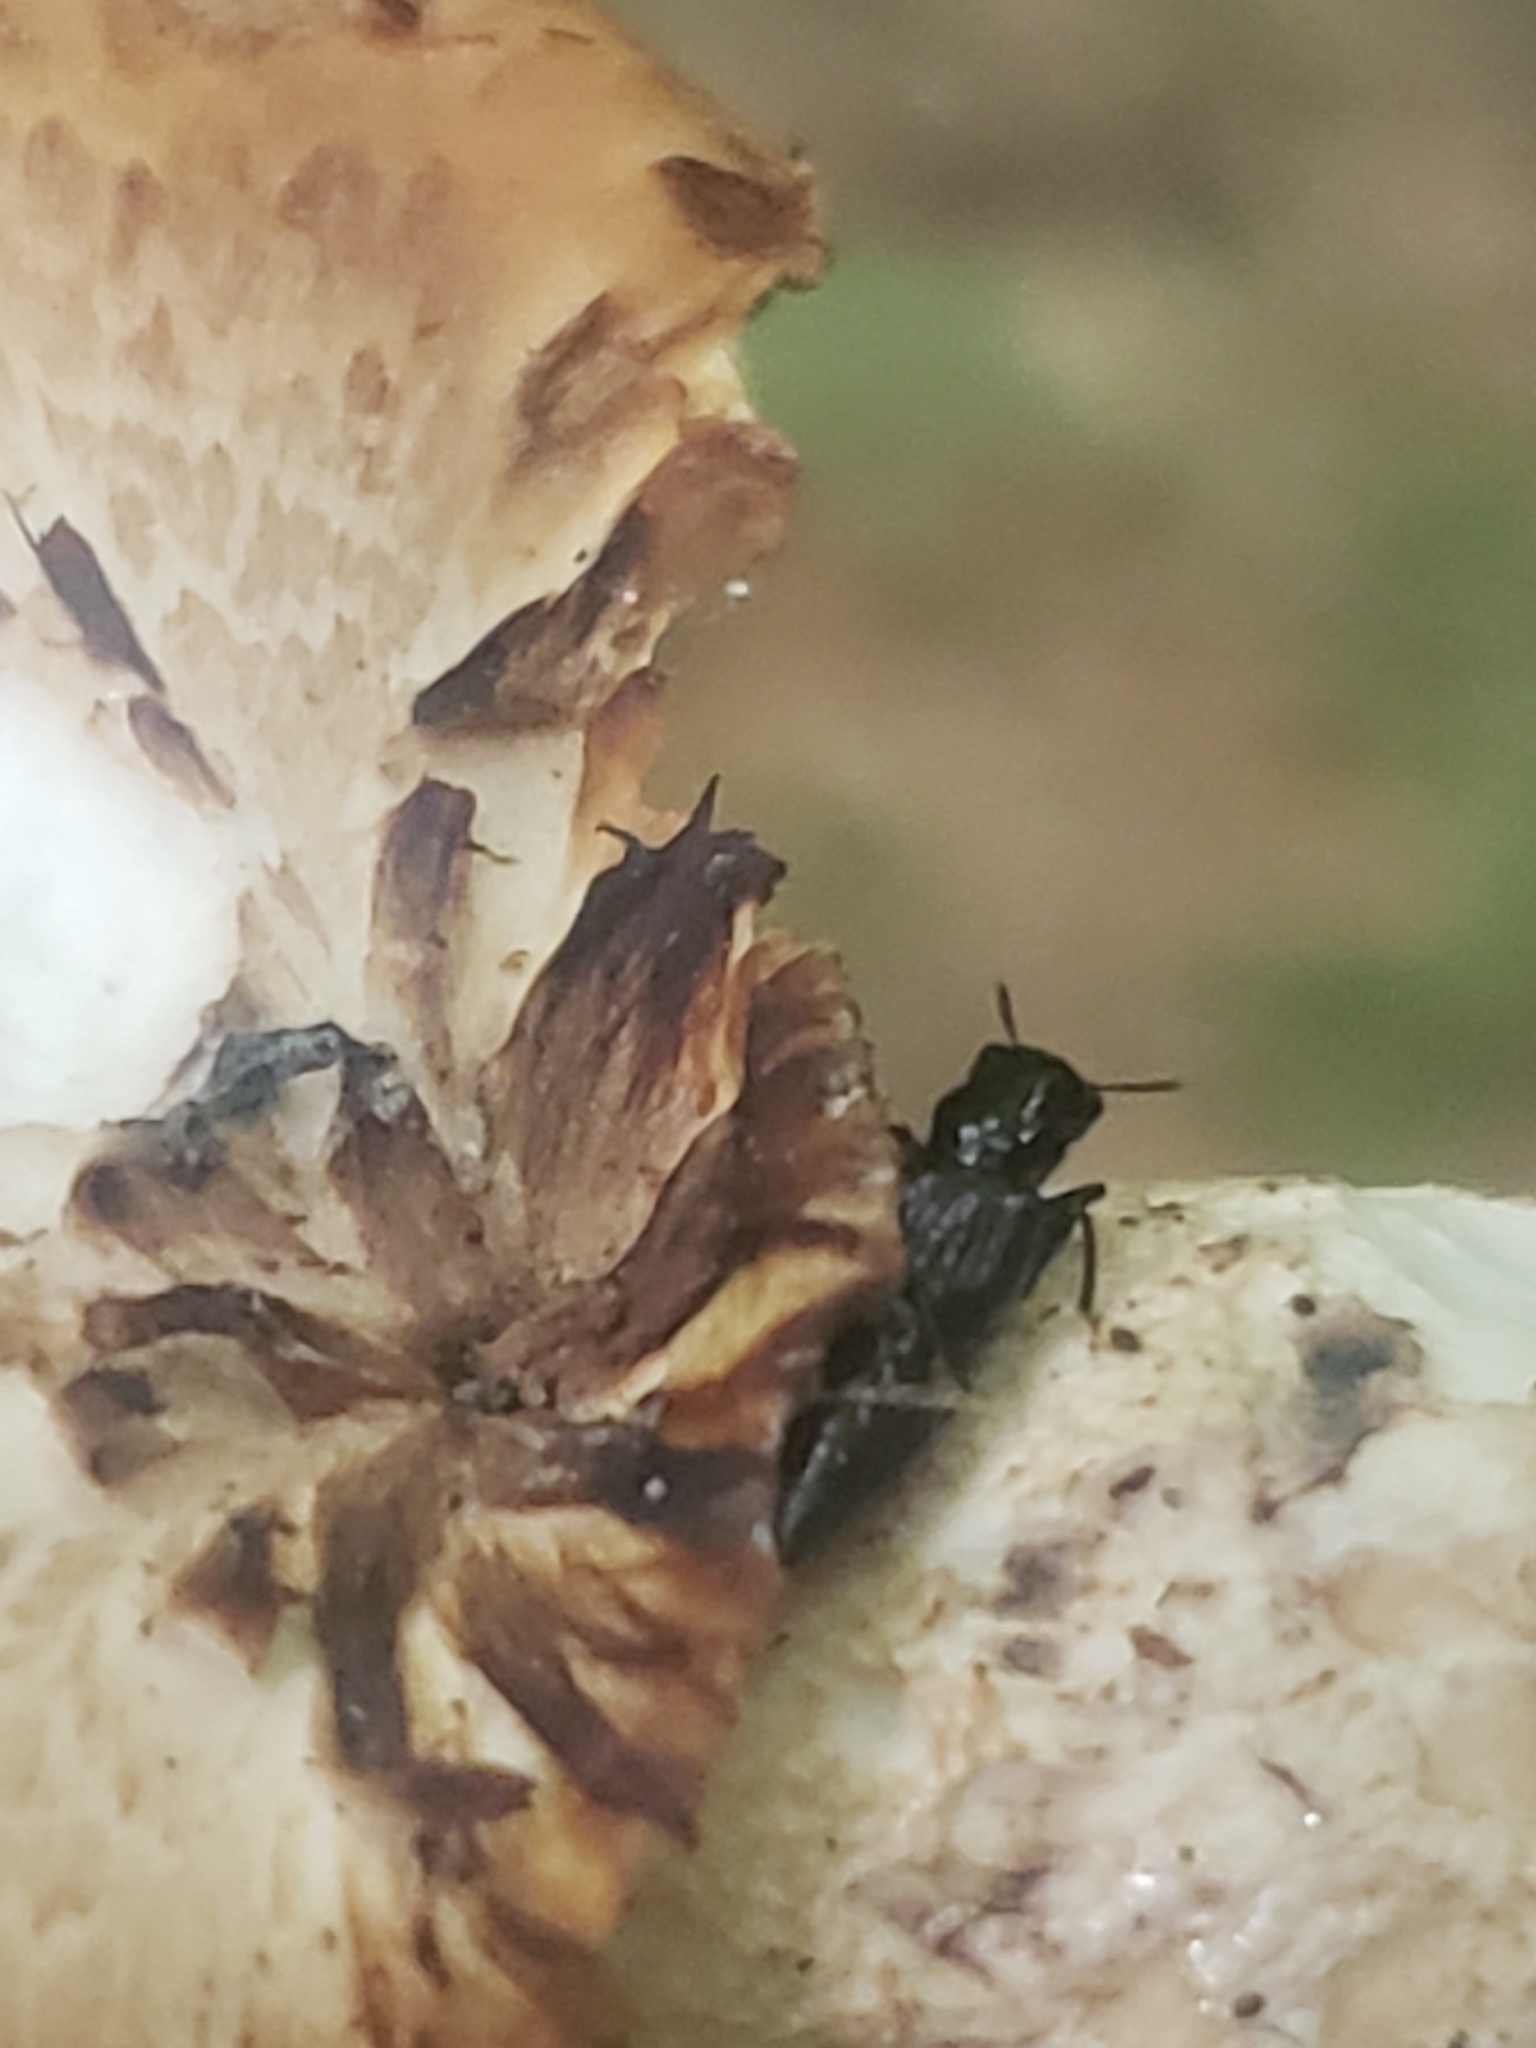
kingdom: Animalia
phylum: Arthropoda
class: Insecta
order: Coleoptera
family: Staphylinidae
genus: Oxyporus
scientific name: Oxyporus stygicus
